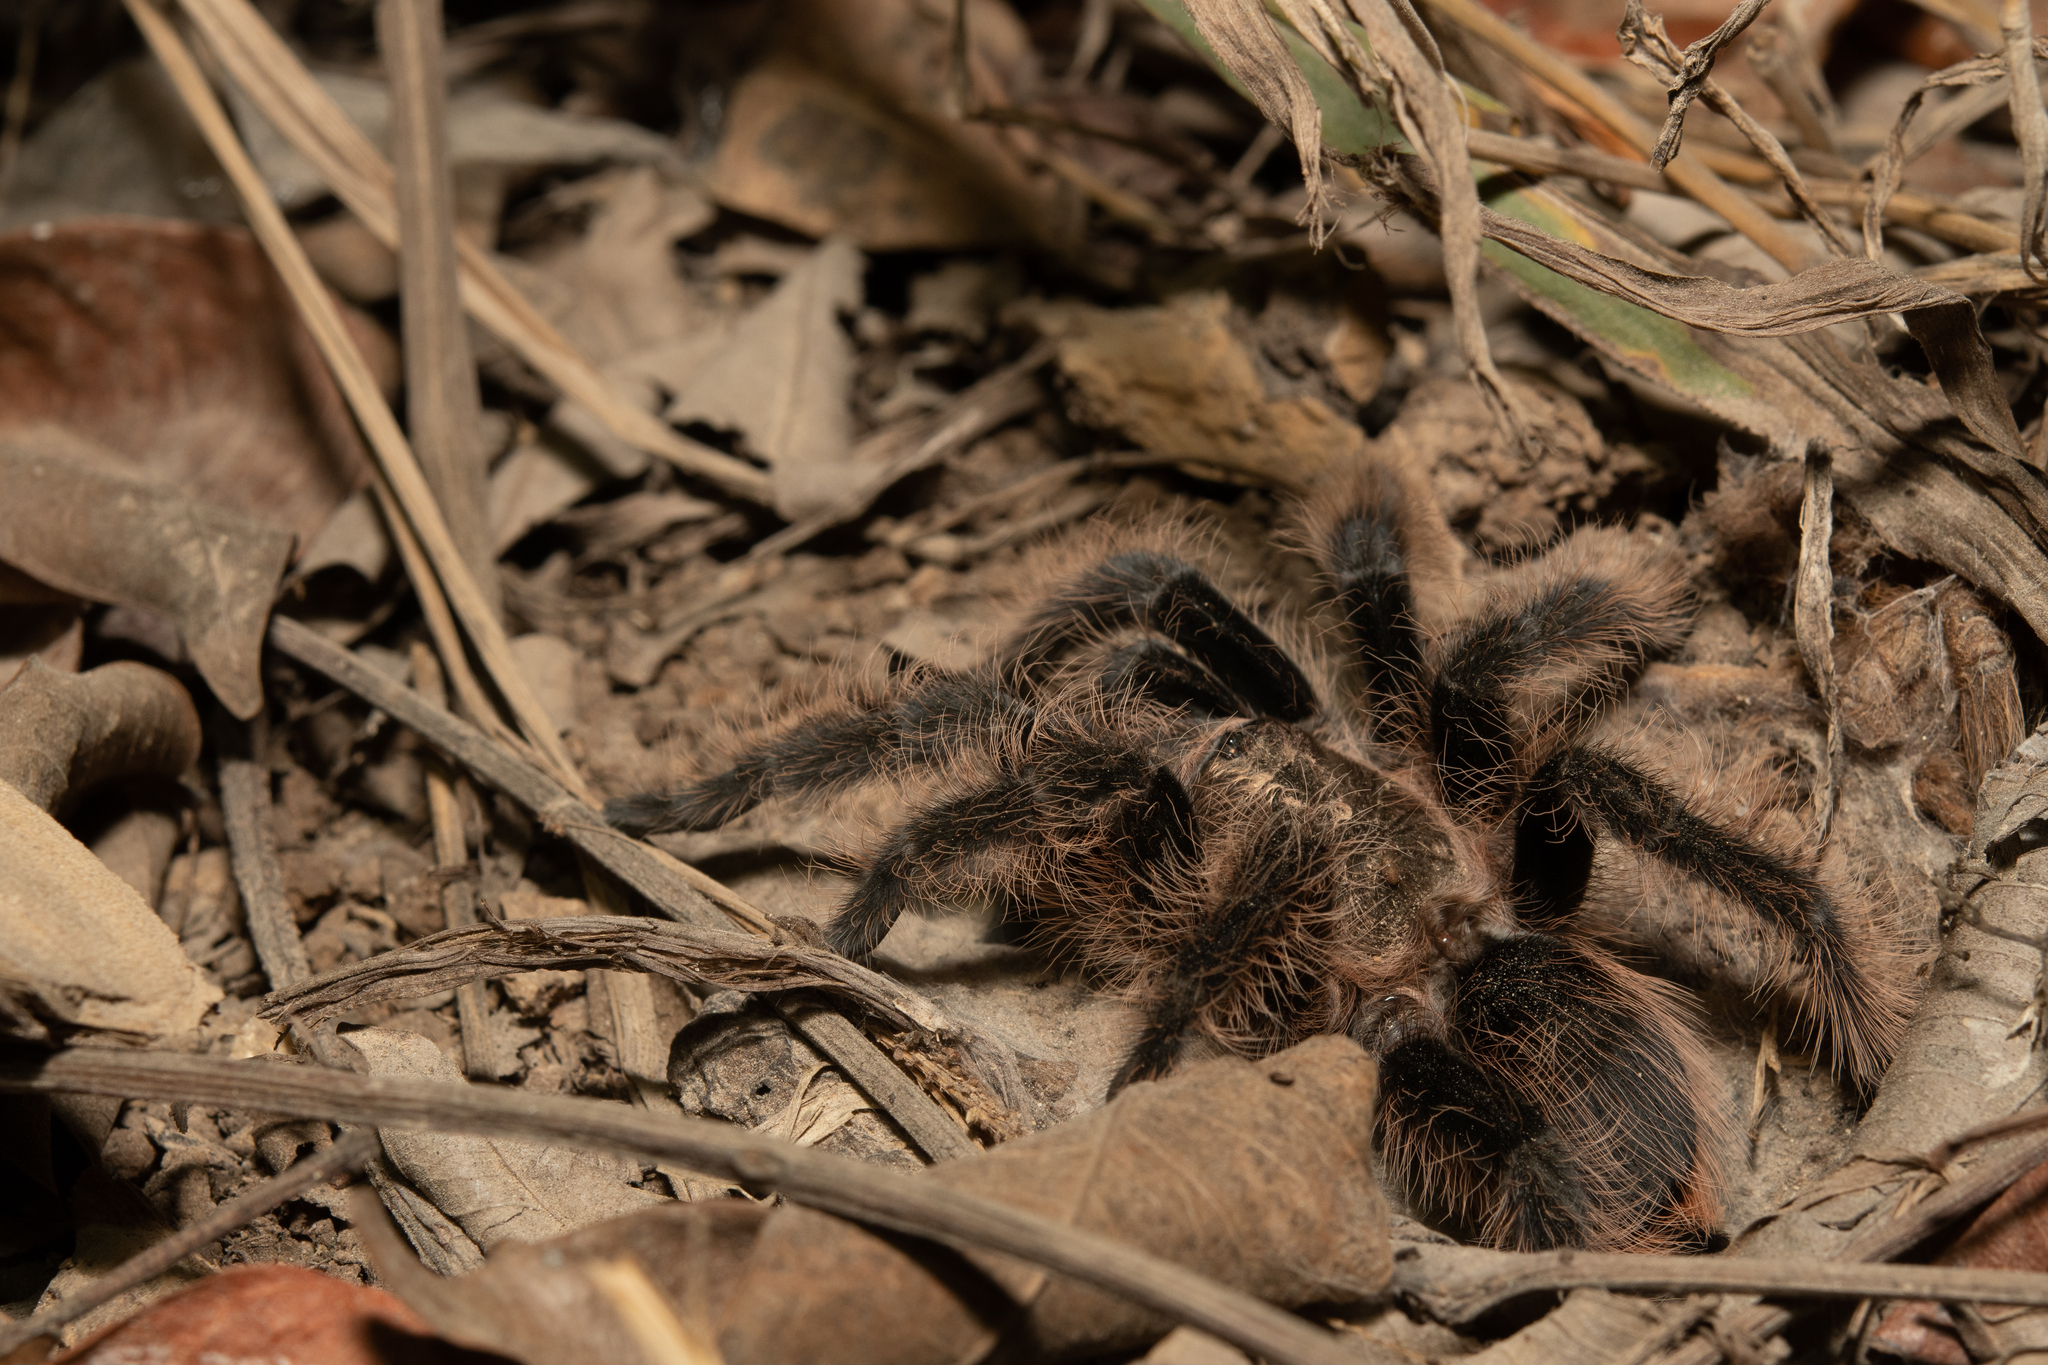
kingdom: Animalia
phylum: Arthropoda
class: Arachnida
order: Araneae
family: Theraphosidae
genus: Tliltocatl
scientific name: Tliltocatl albopilosus
